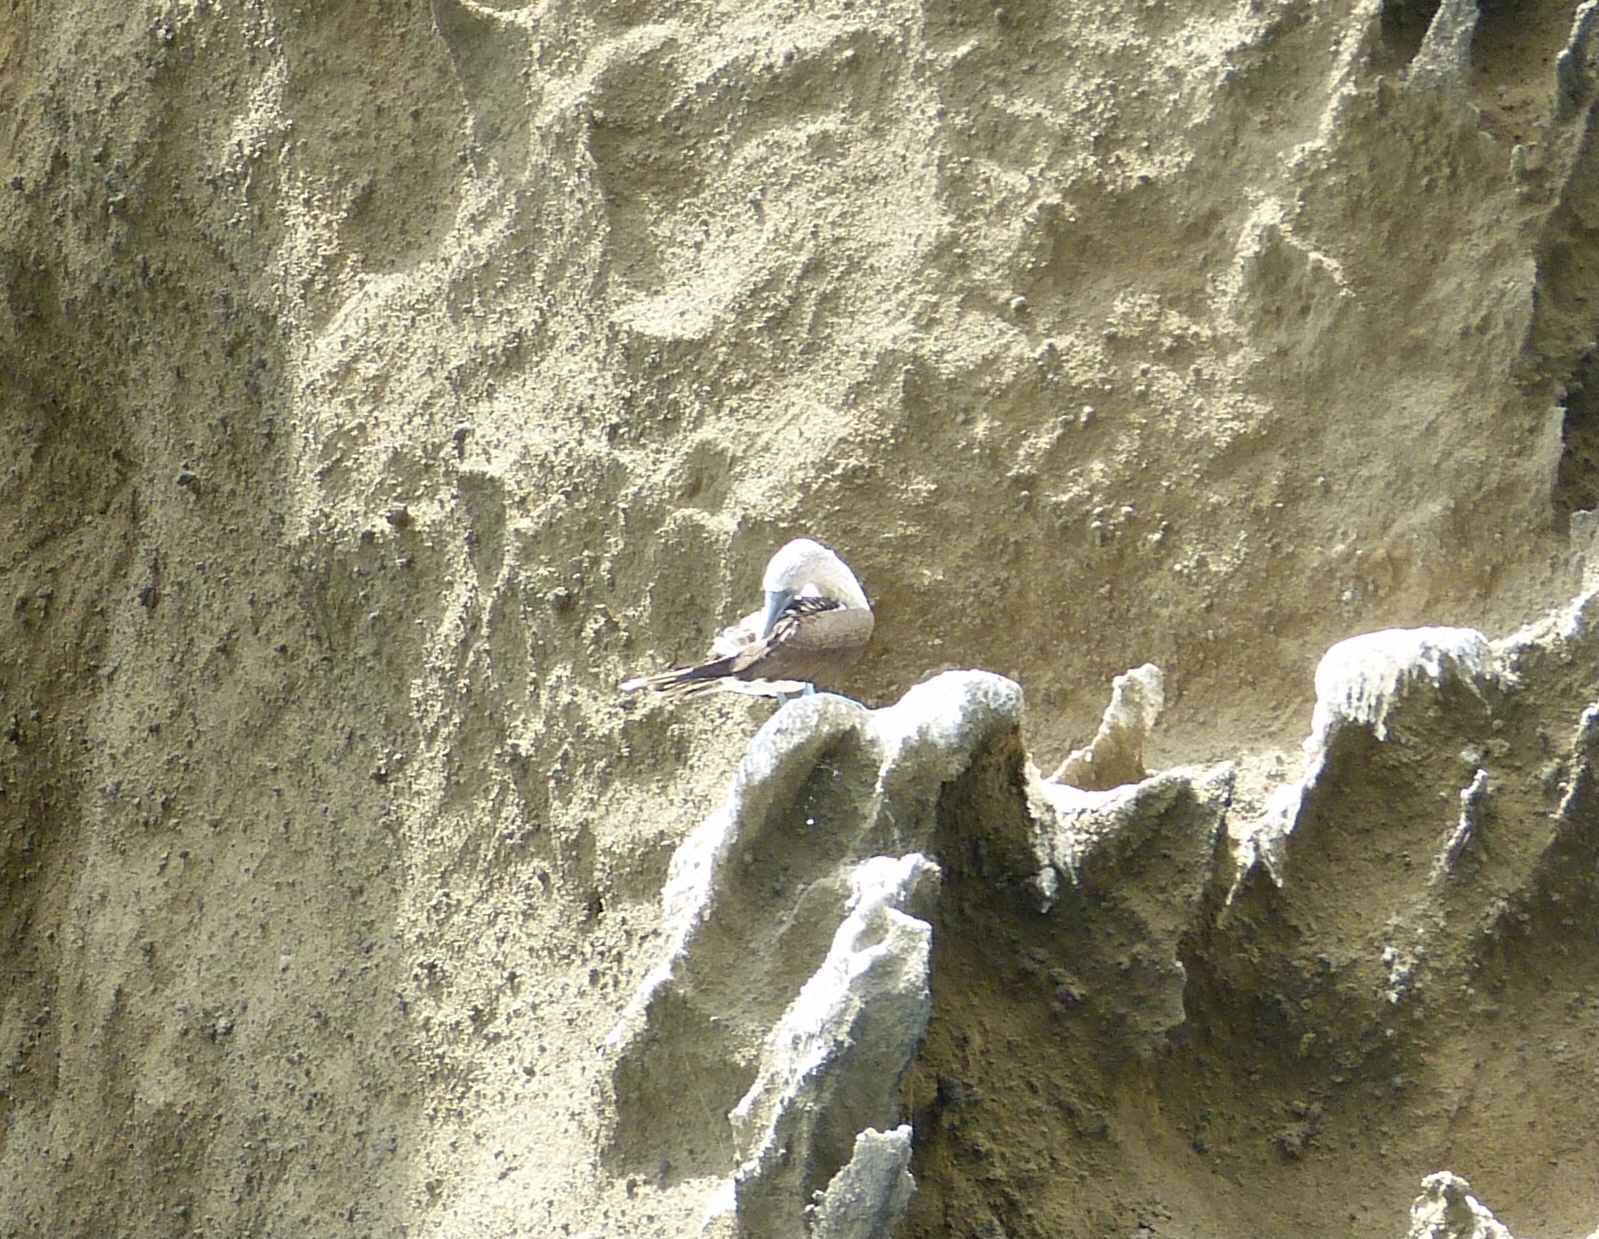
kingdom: Animalia
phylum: Chordata
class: Aves
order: Suliformes
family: Sulidae
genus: Sula
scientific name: Sula nebouxii
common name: Blue-footed booby
